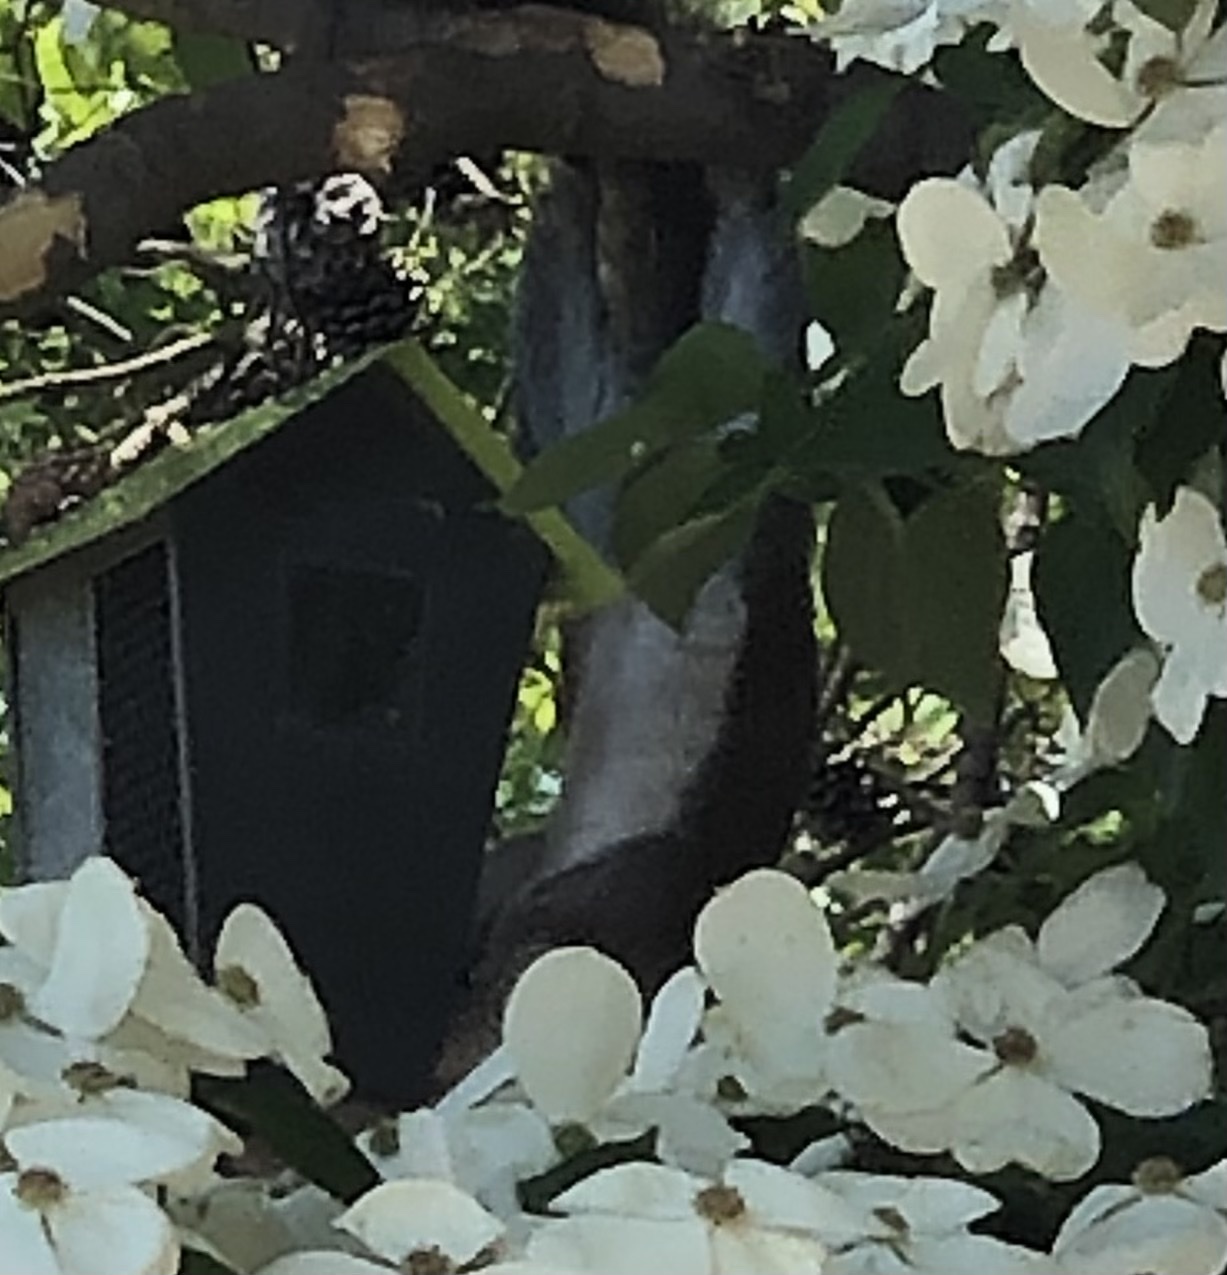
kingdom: Animalia
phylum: Chordata
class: Mammalia
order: Rodentia
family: Sciuridae
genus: Sciurus
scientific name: Sciurus carolinensis
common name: Eastern gray squirrel
